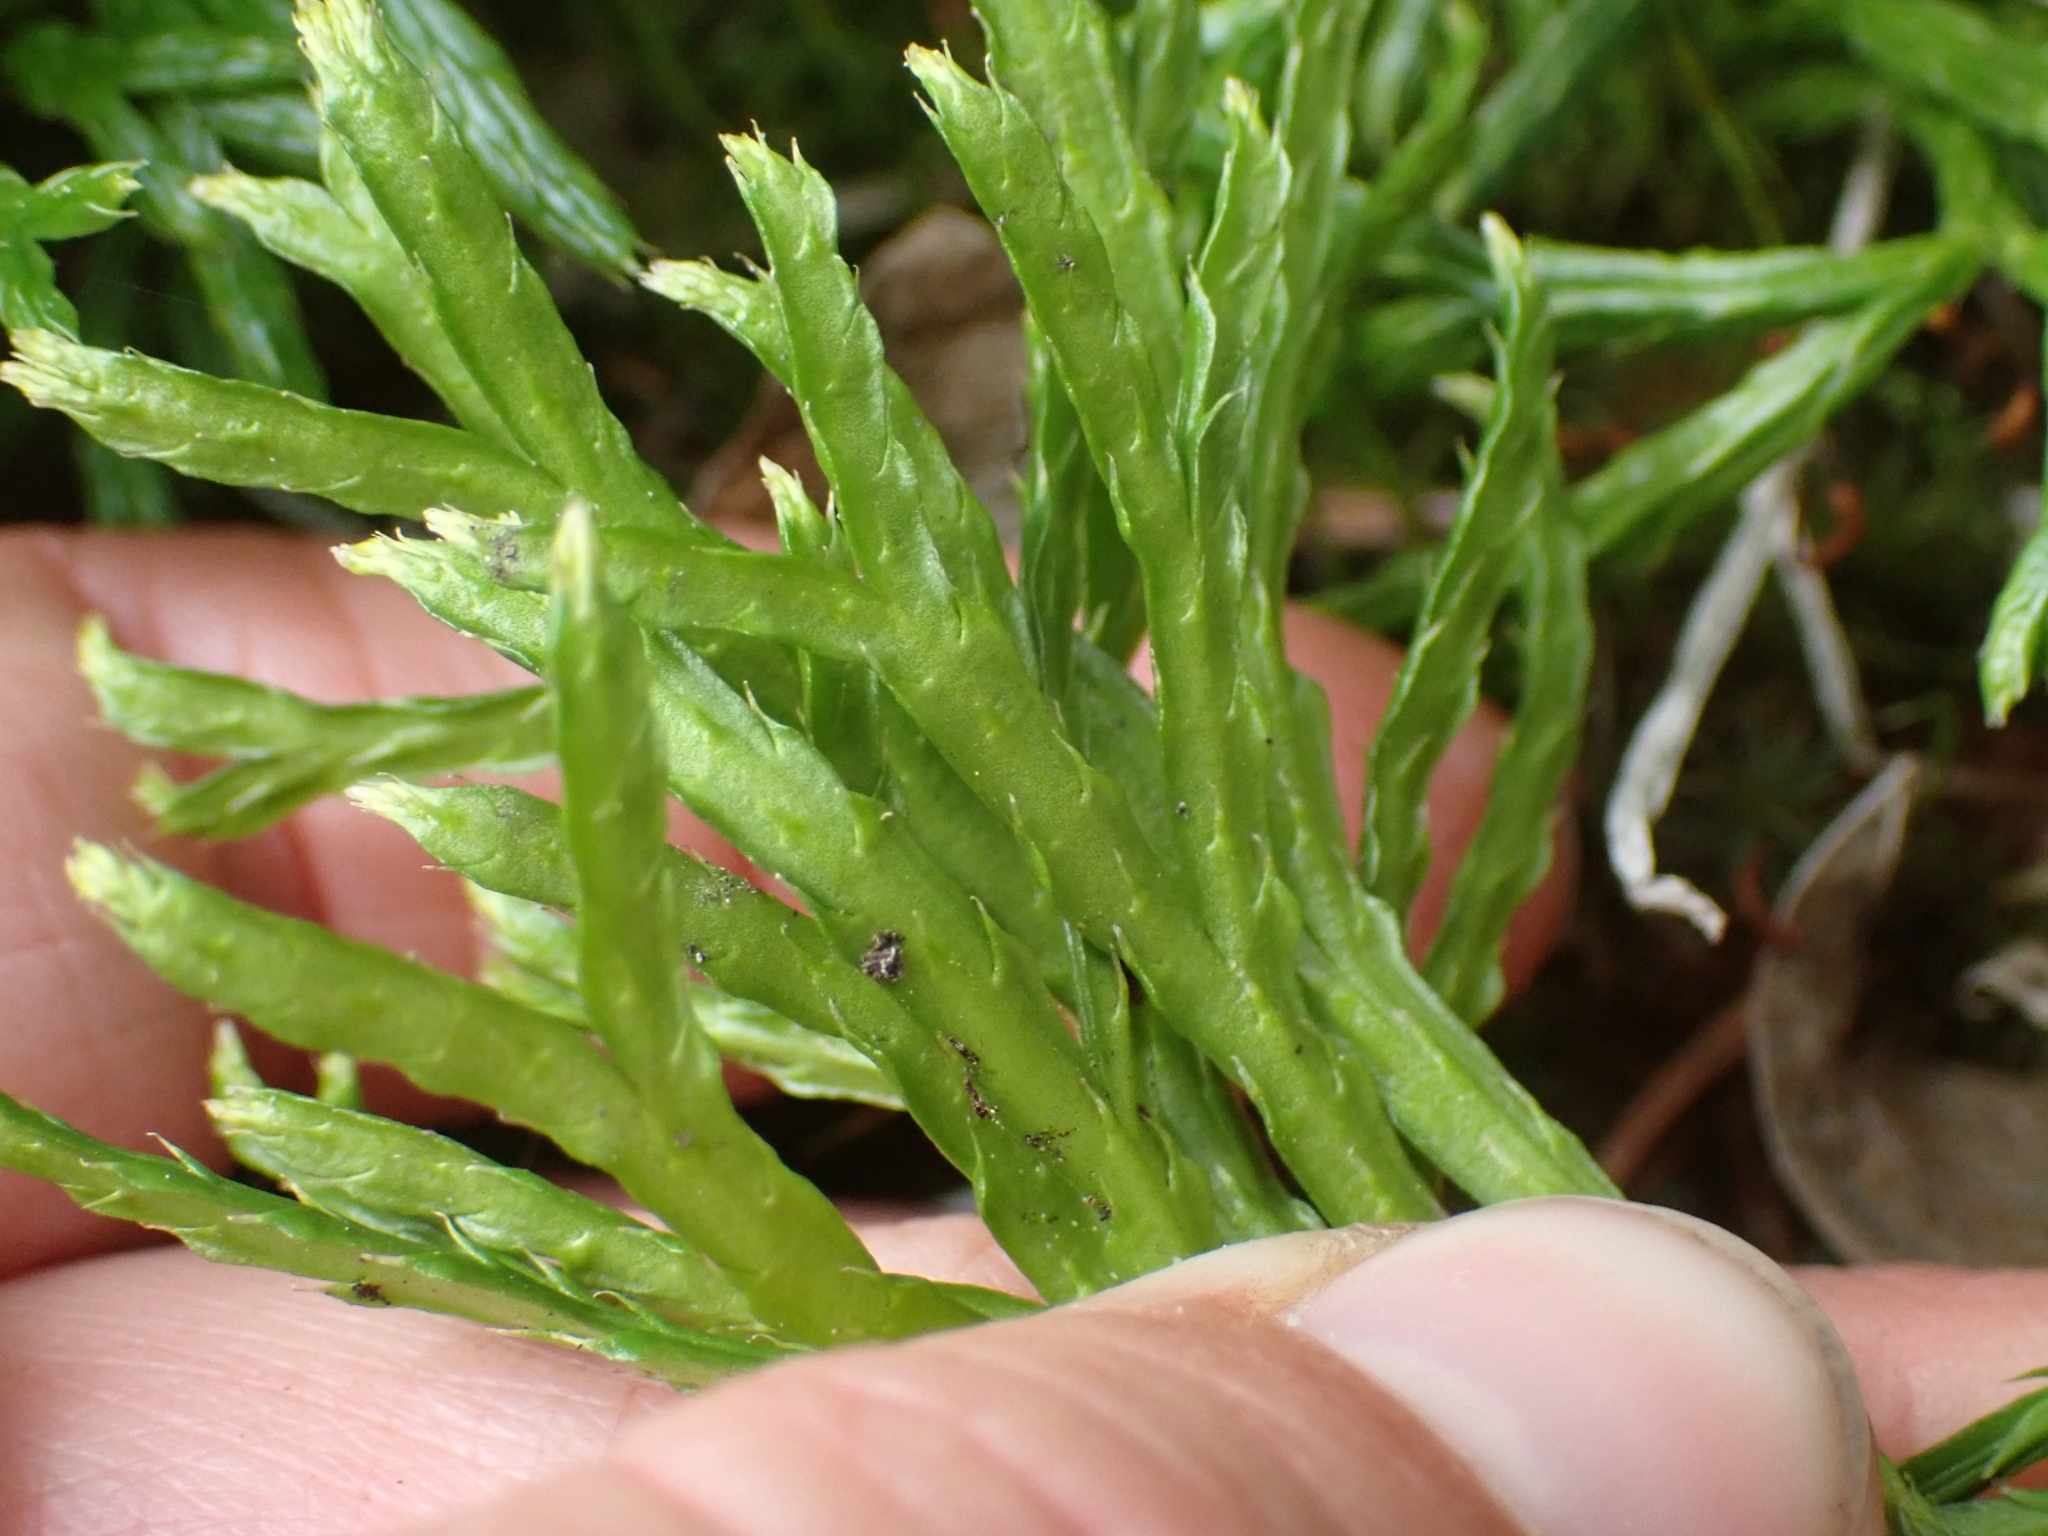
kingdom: Plantae
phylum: Tracheophyta
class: Lycopodiopsida
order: Lycopodiales
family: Lycopodiaceae
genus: Diphasiastrum
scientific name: Diphasiastrum complanatum
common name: Northern running-pine
